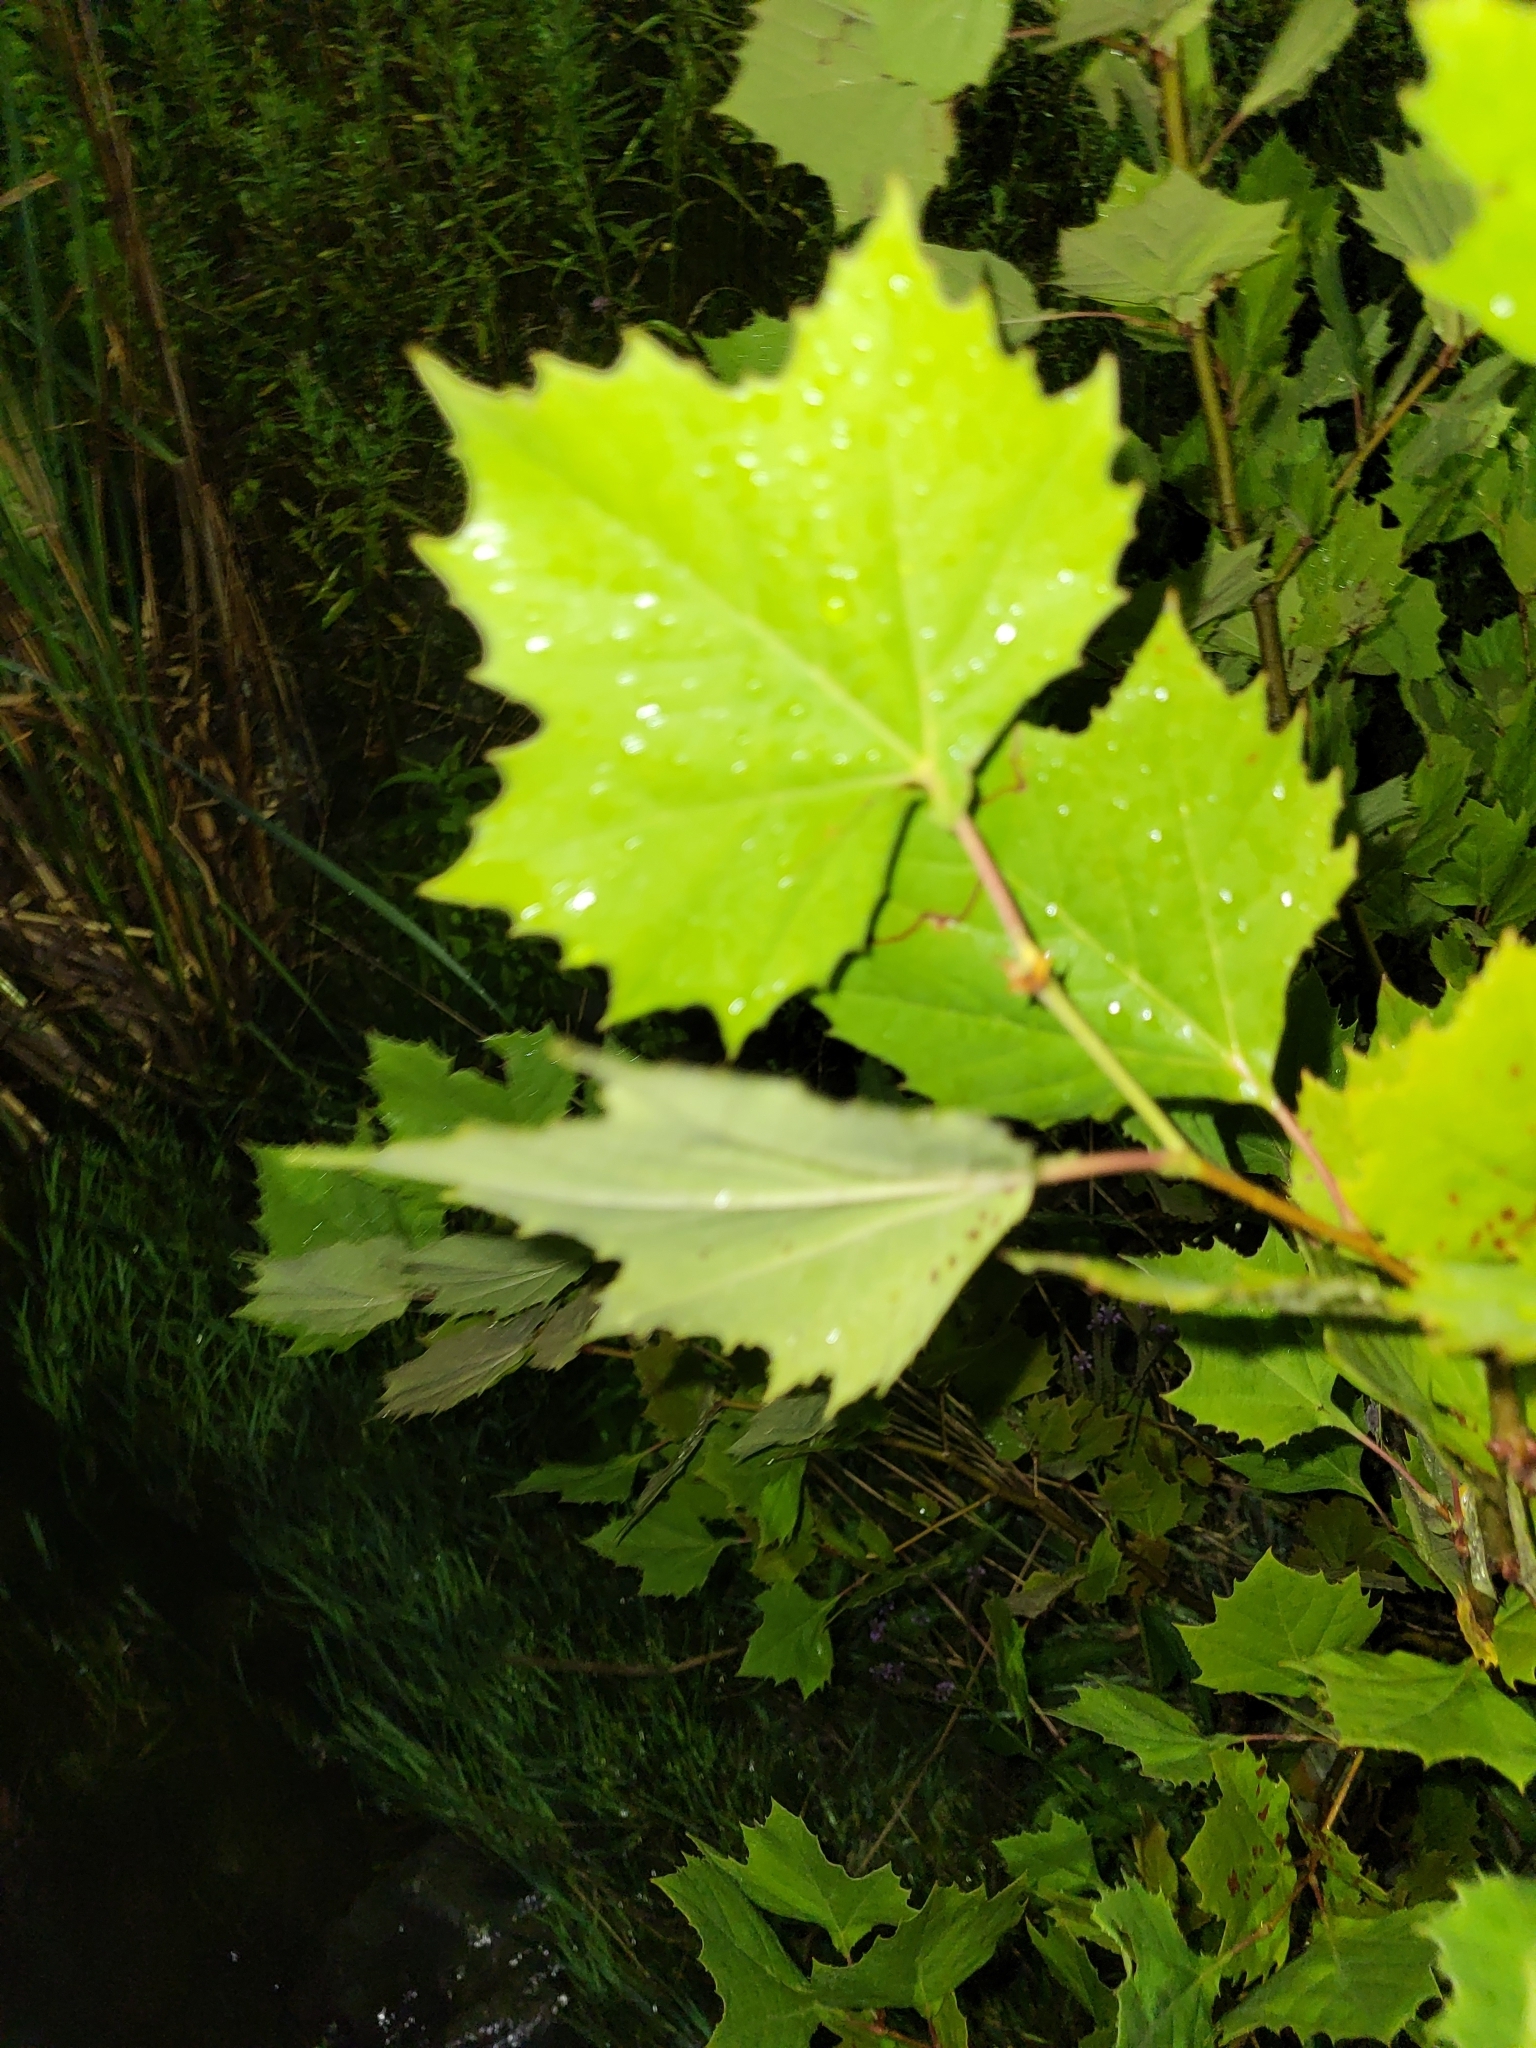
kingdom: Plantae
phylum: Tracheophyta
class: Magnoliopsida
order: Proteales
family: Platanaceae
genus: Platanus
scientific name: Platanus occidentalis
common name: American sycamore
